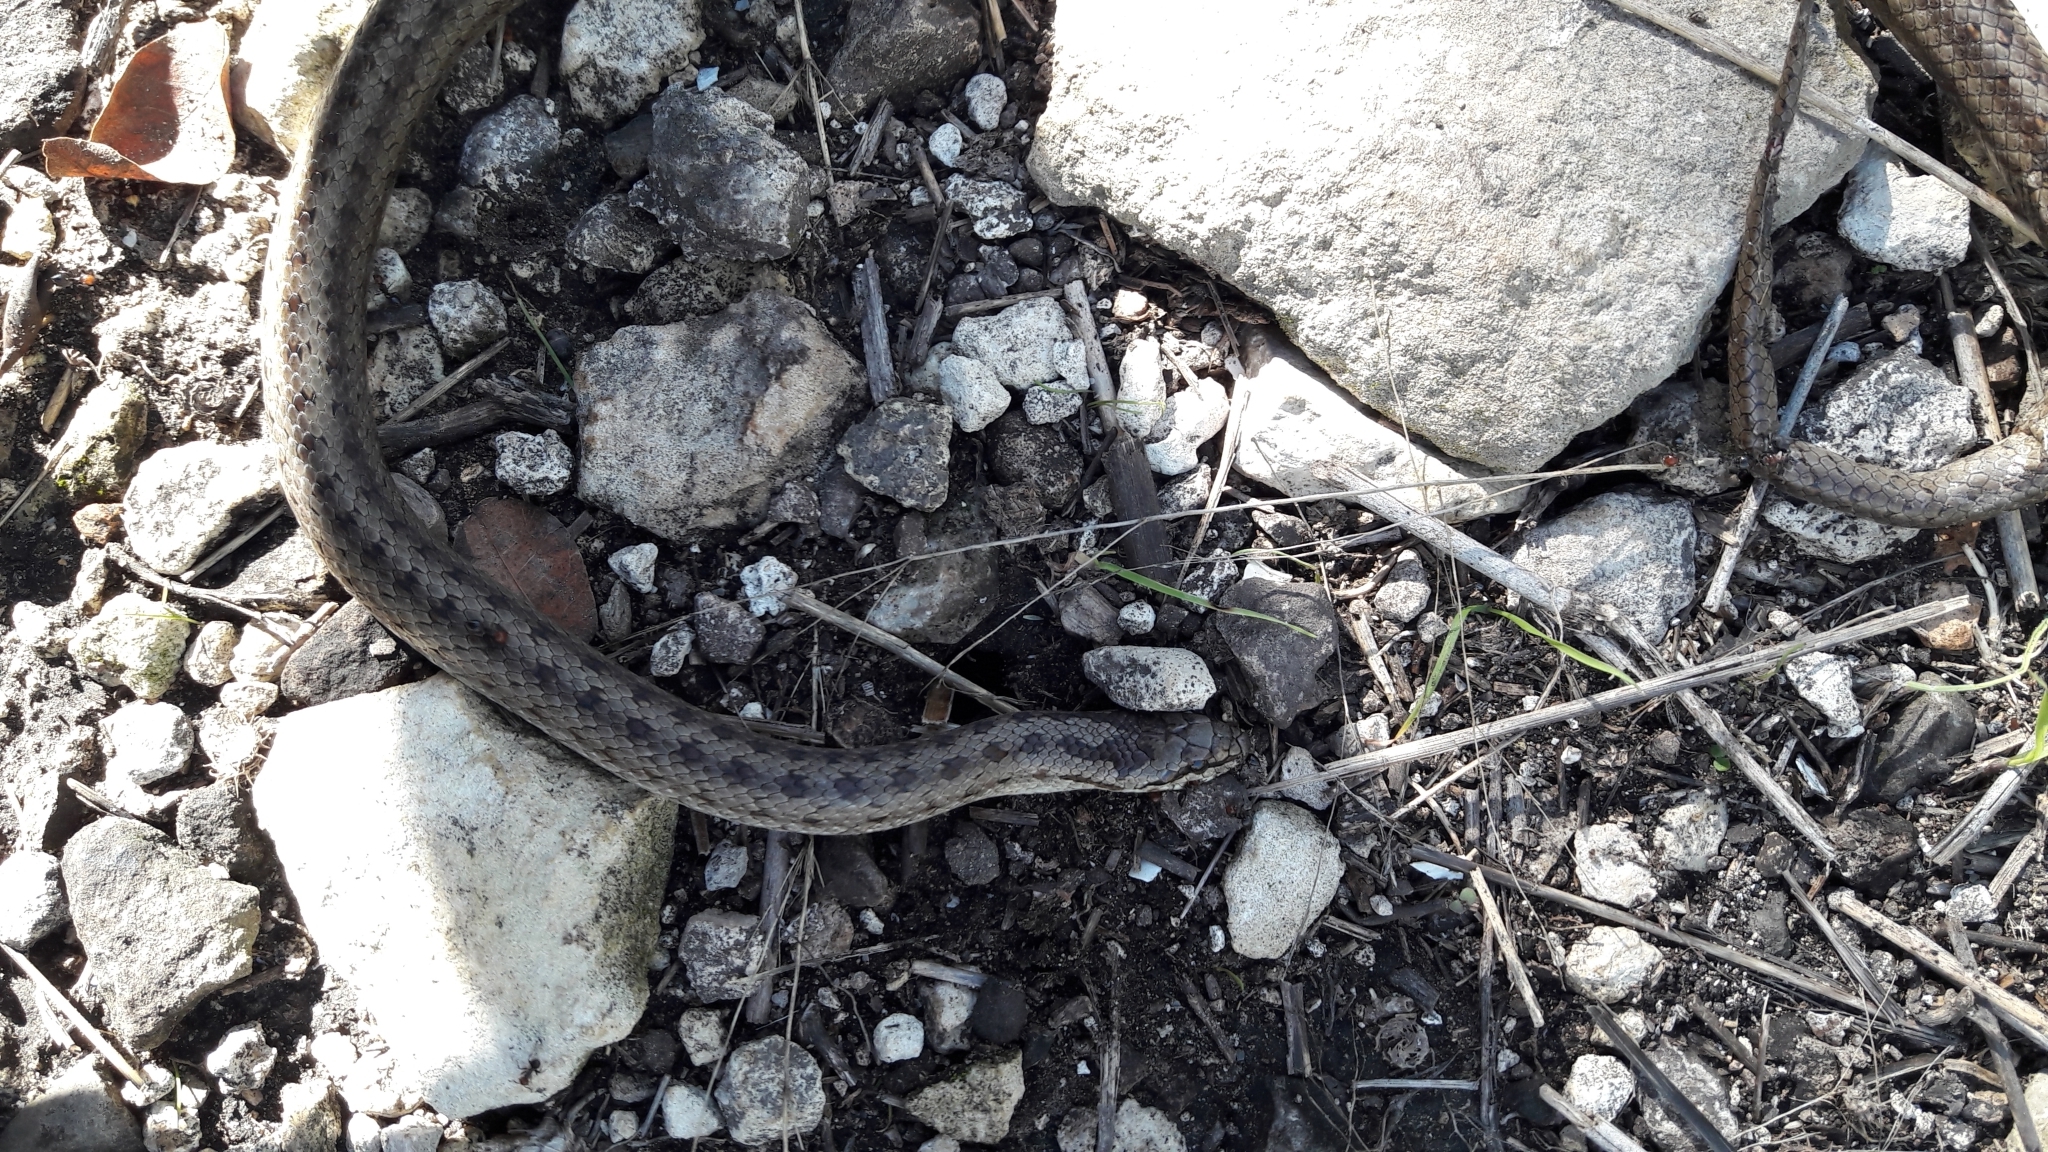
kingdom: Animalia
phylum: Chordata
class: Squamata
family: Colubridae
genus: Coronella
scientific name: Coronella austriaca
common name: Smooth snake
